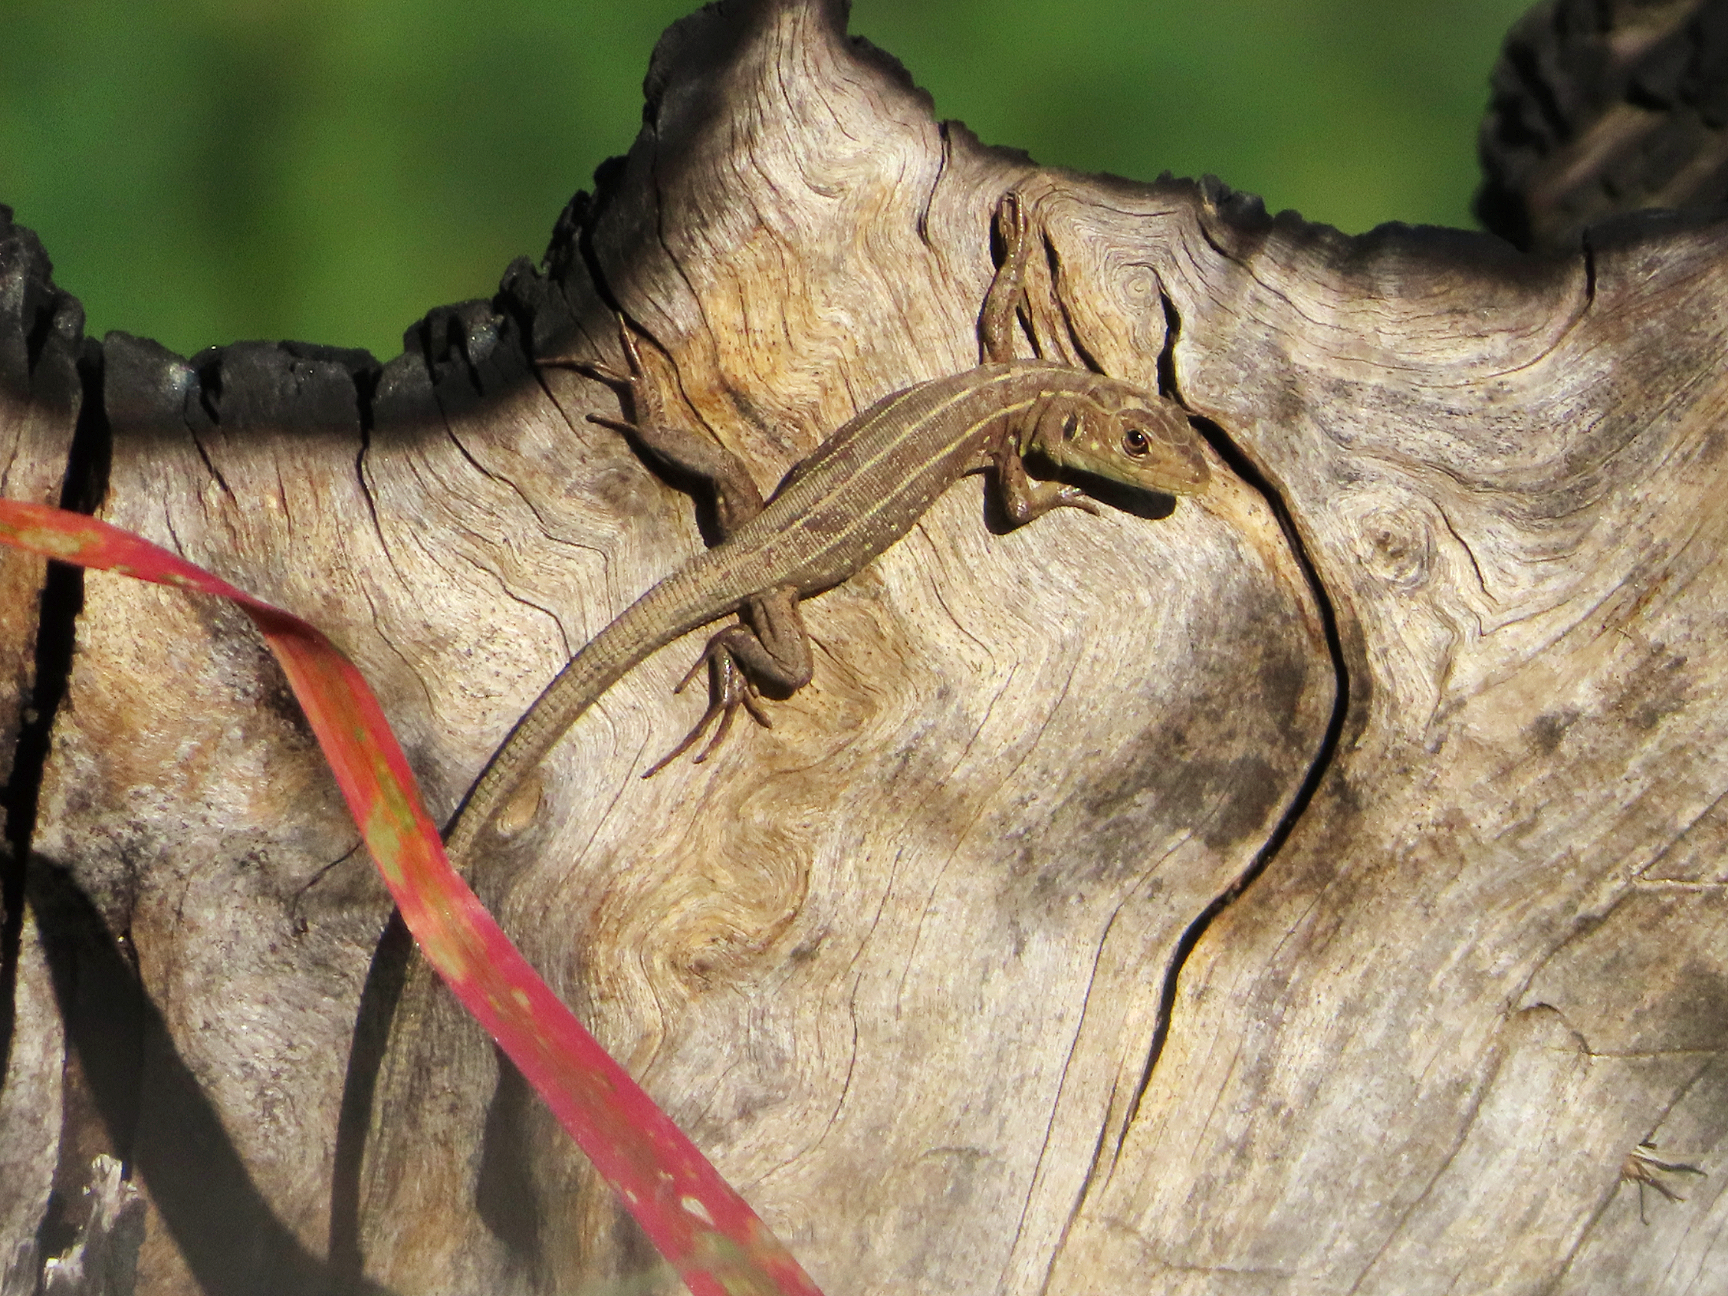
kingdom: Animalia
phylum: Chordata
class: Squamata
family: Lacertidae
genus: Lacerta
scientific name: Lacerta trilineata
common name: Balkan green lizard
